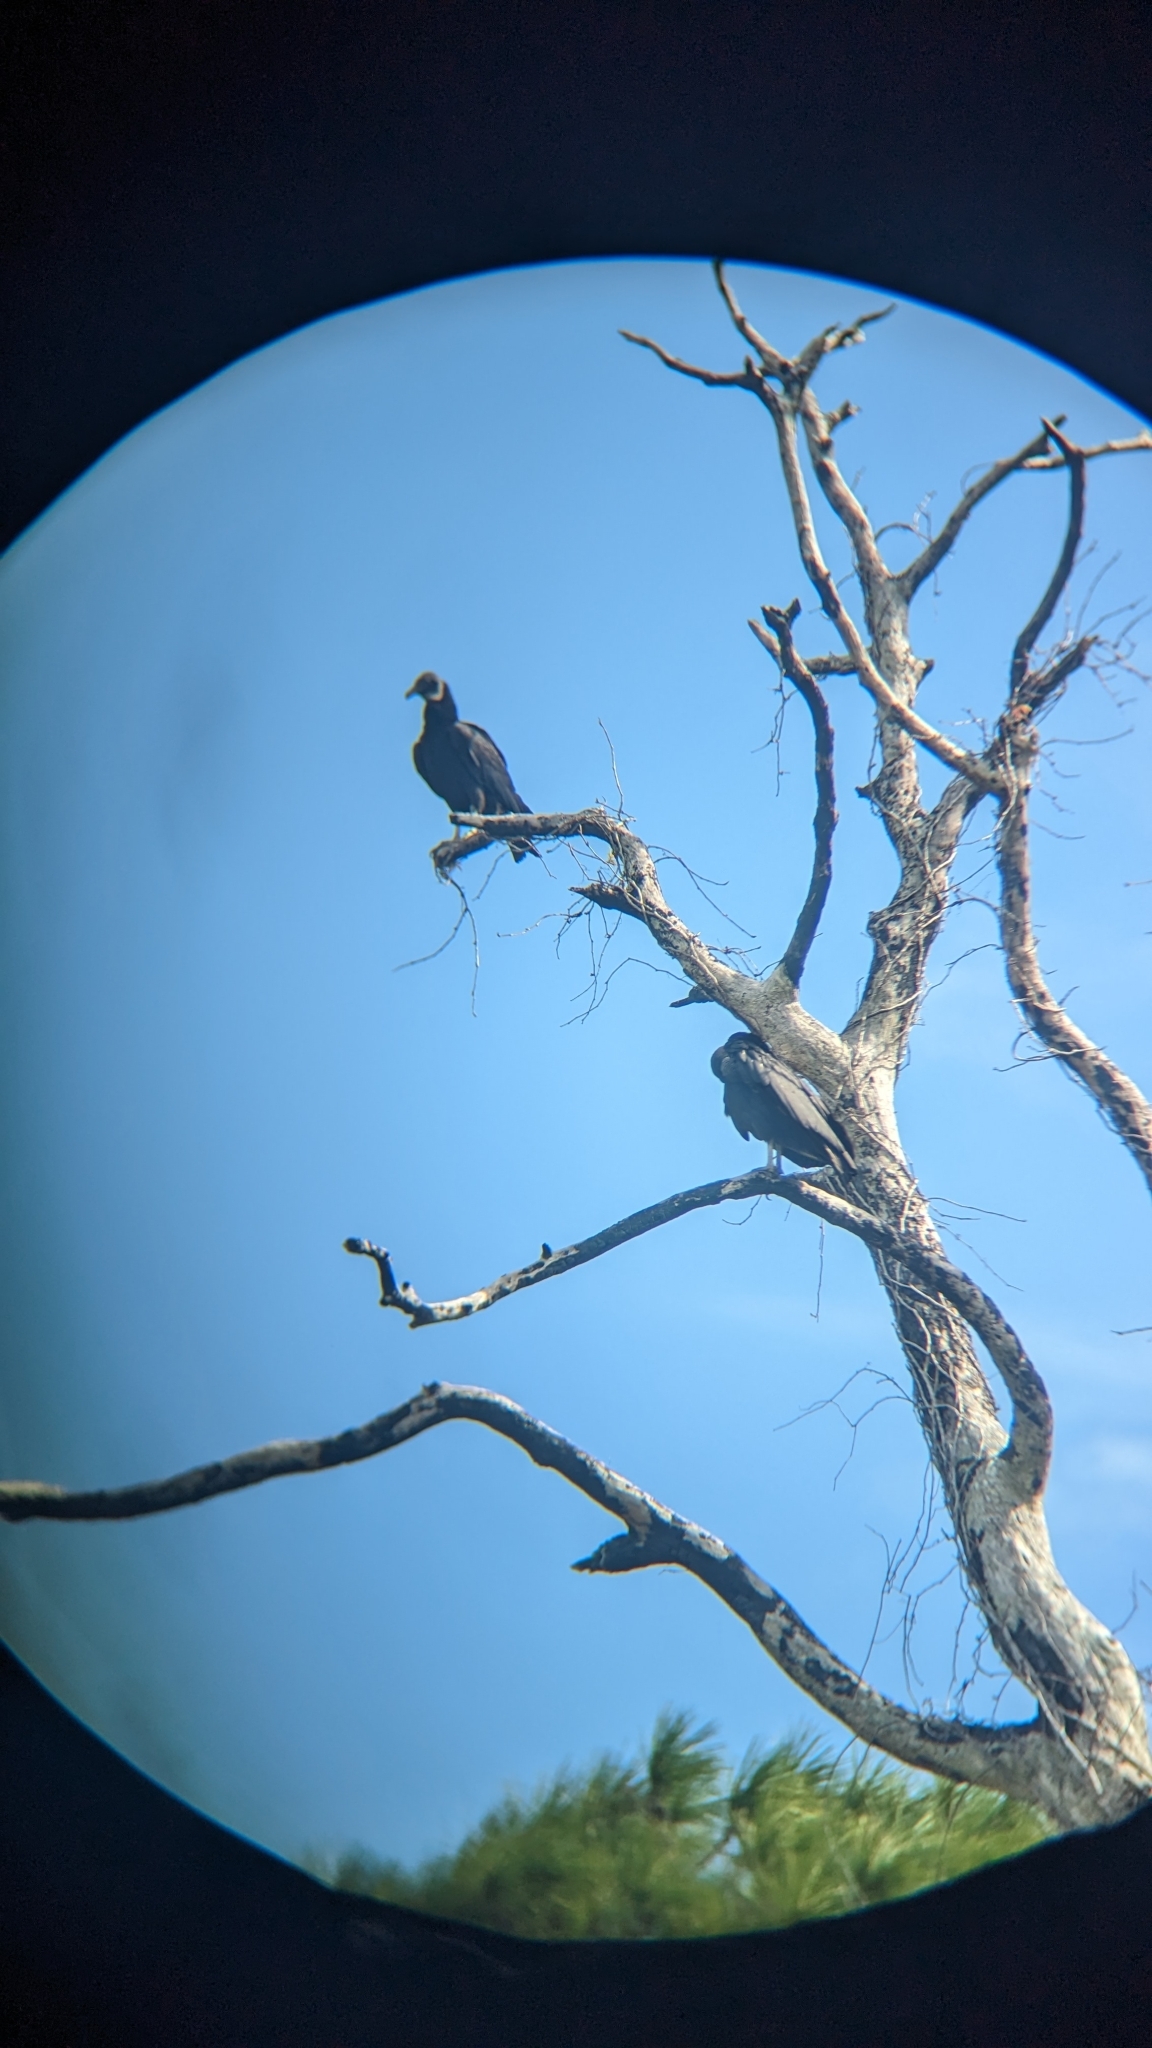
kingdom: Animalia
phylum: Chordata
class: Aves
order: Accipitriformes
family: Cathartidae
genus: Coragyps
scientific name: Coragyps atratus
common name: Black vulture
